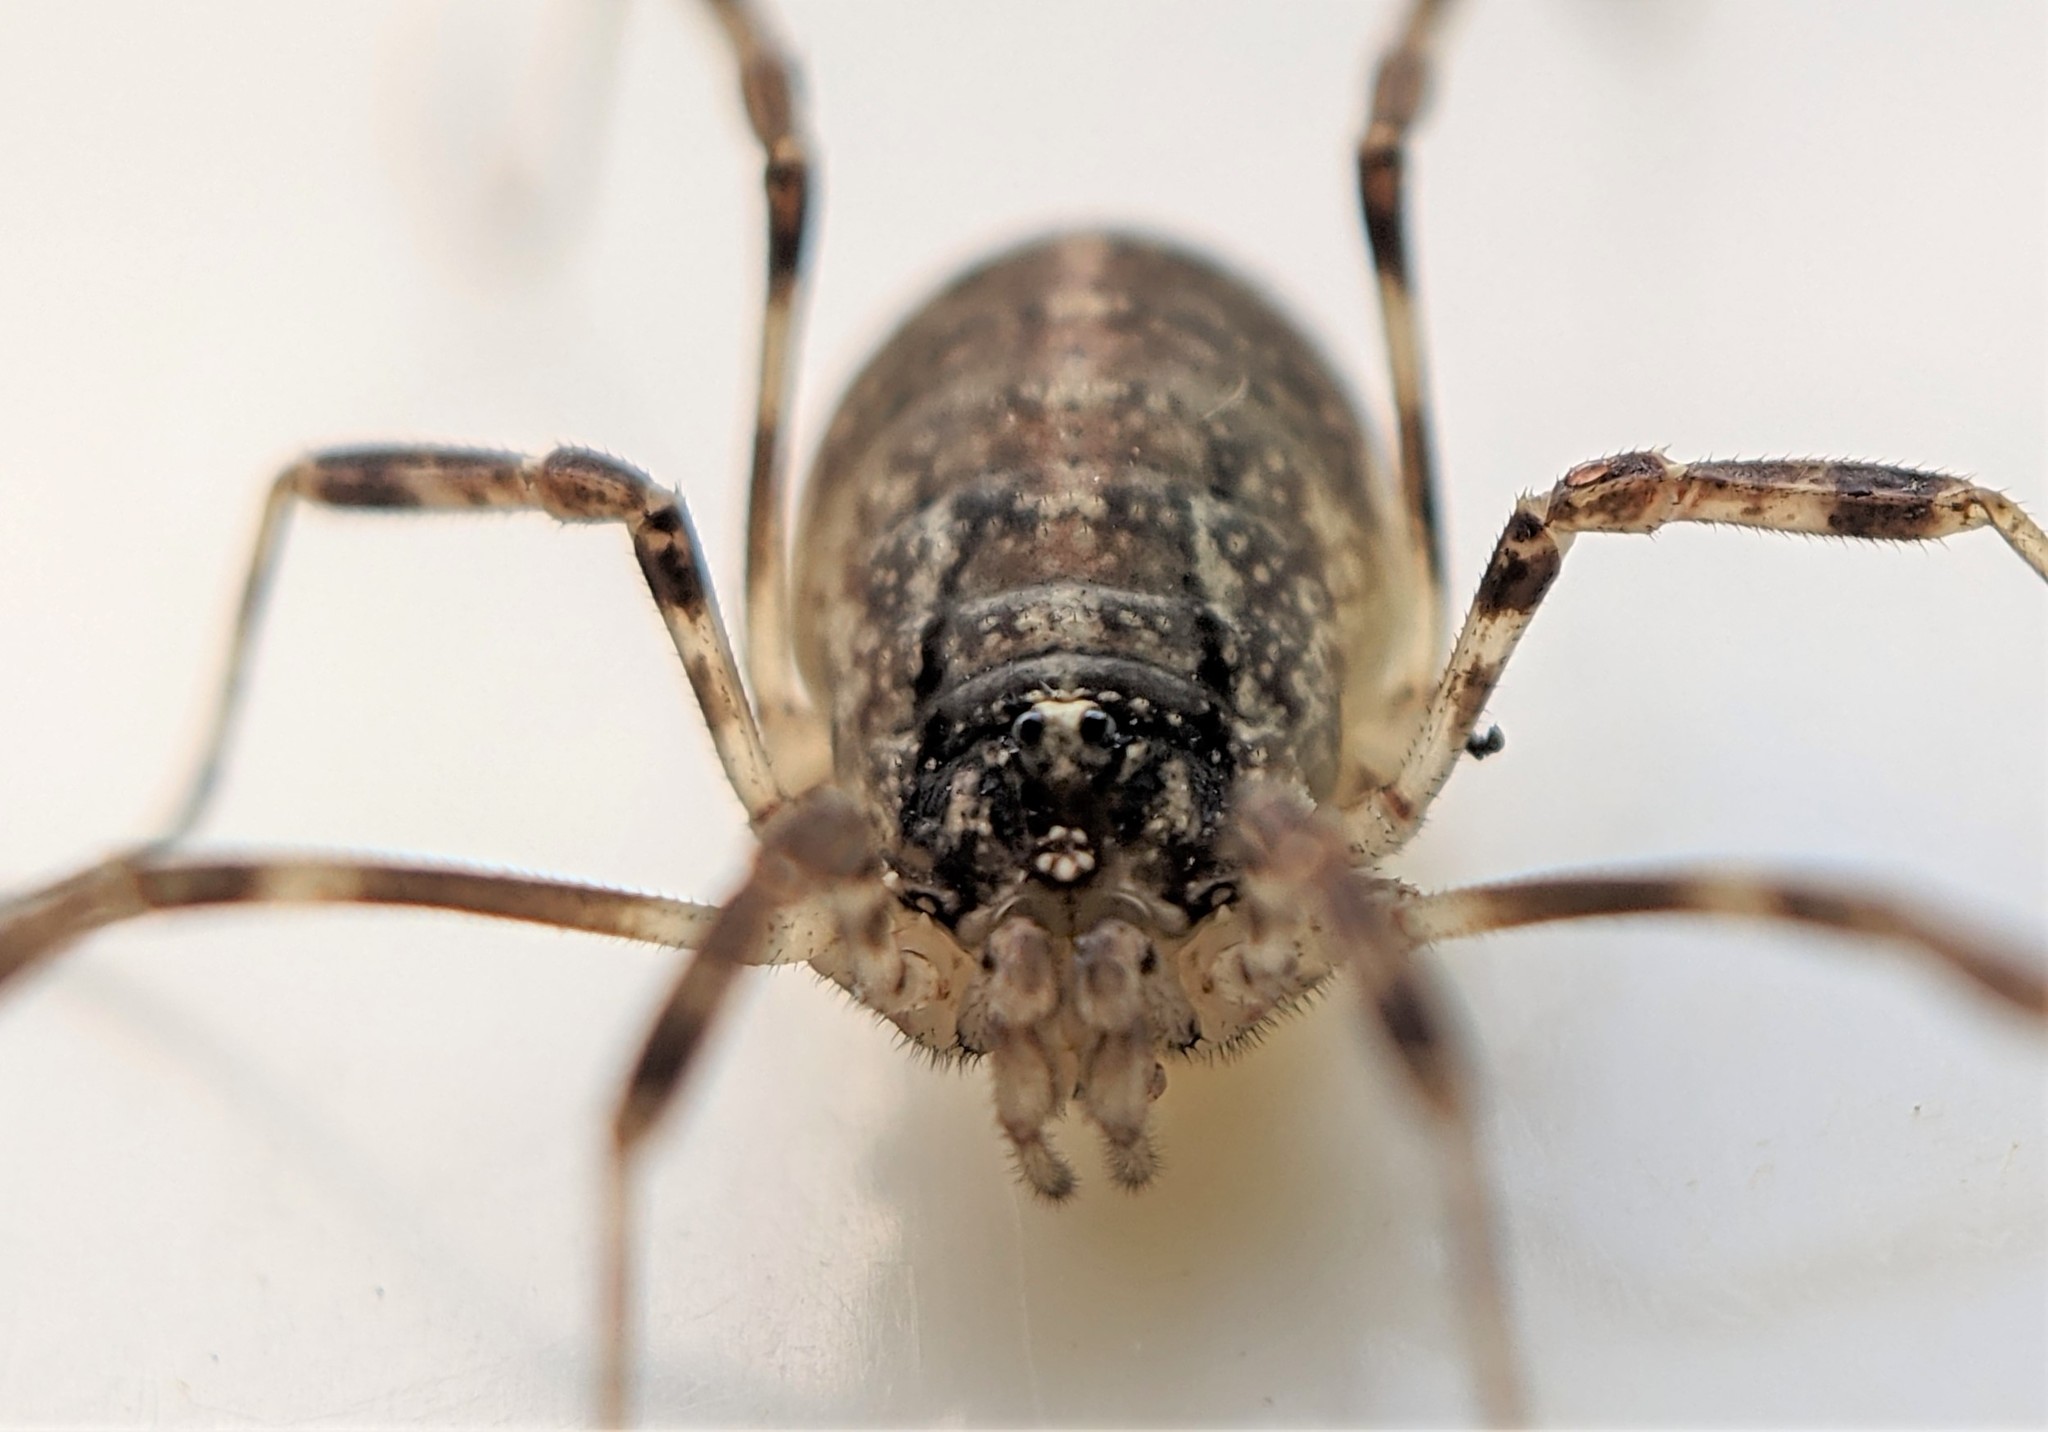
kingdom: Animalia
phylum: Arthropoda
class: Arachnida
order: Opiliones
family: Phalangiidae
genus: Paroligolophus
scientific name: Paroligolophus agrestis
